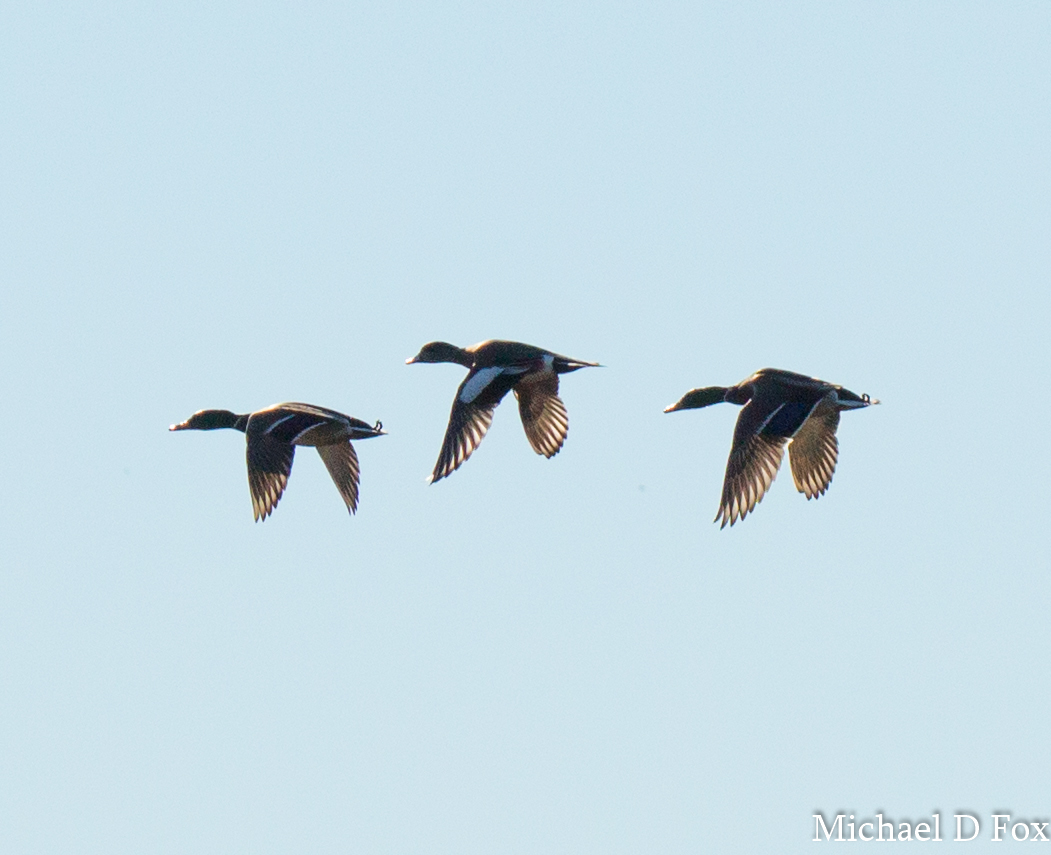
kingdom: Animalia
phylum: Chordata
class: Aves
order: Anseriformes
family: Anatidae
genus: Anas
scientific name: Anas platyrhynchos
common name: Mallard
